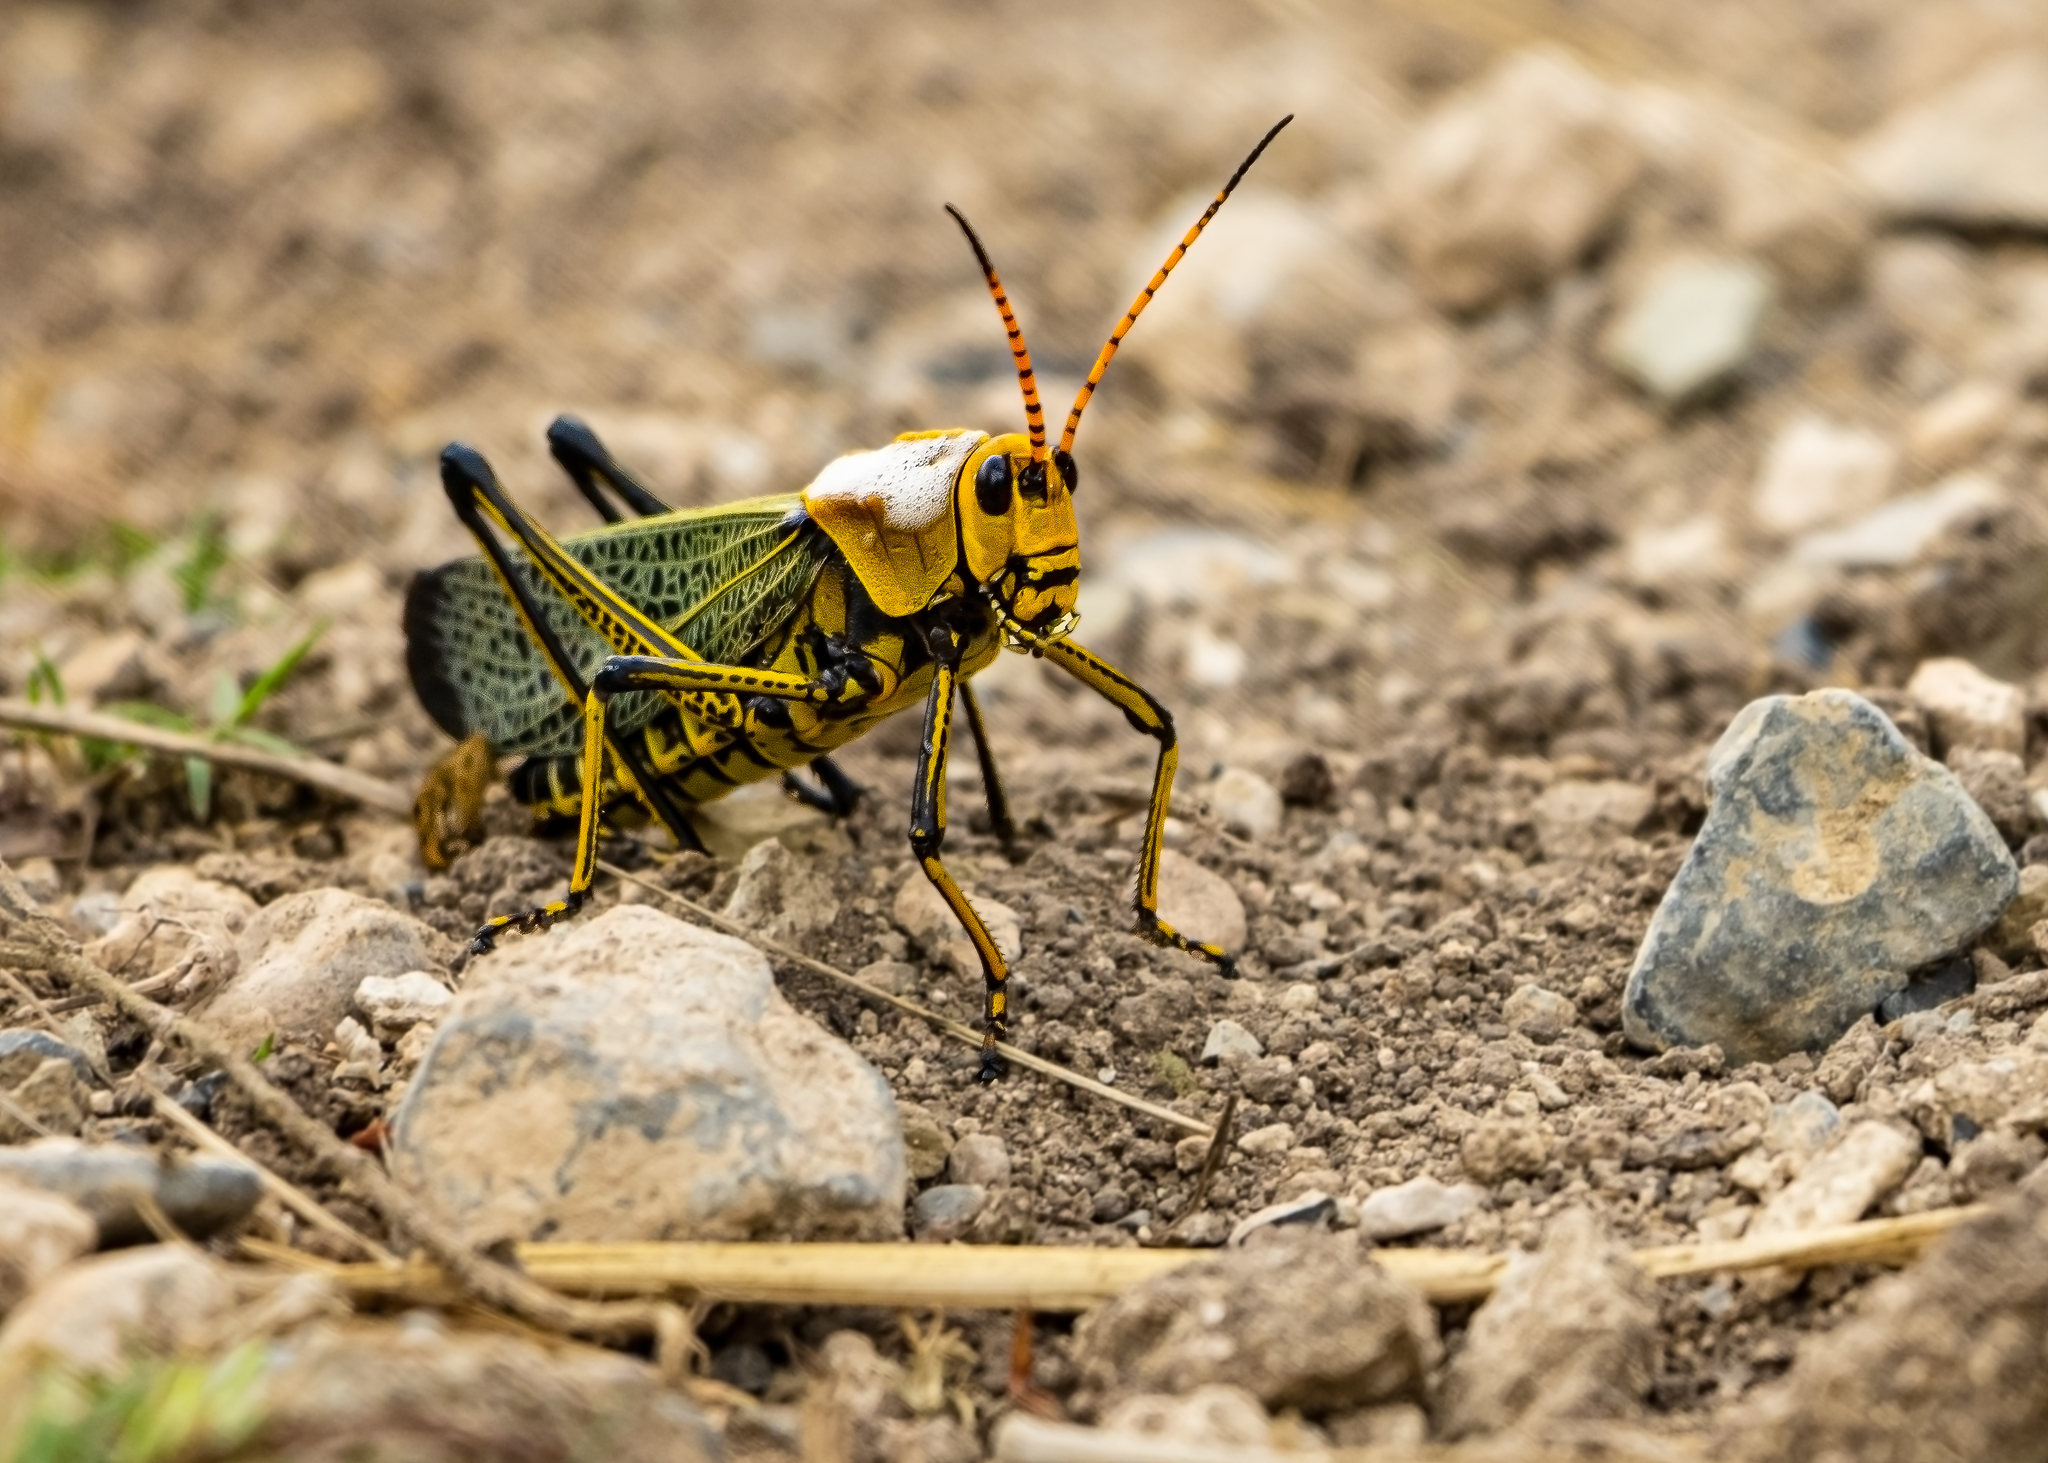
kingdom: Animalia
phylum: Arthropoda
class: Insecta
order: Orthoptera
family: Romaleidae
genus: Romalea
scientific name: Romalea
